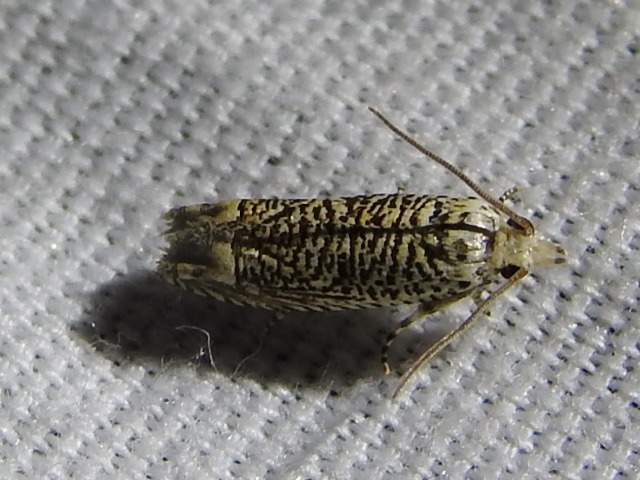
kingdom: Animalia
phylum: Arthropoda
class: Insecta
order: Lepidoptera
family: Tortricidae
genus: Eucosma
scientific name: Eucosma argutipunctana
